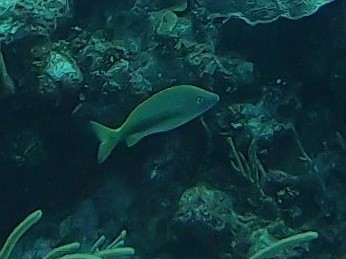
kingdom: Animalia
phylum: Chordata
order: Perciformes
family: Haemulidae
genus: Haemulon
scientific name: Haemulon plumierii
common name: White grunt
